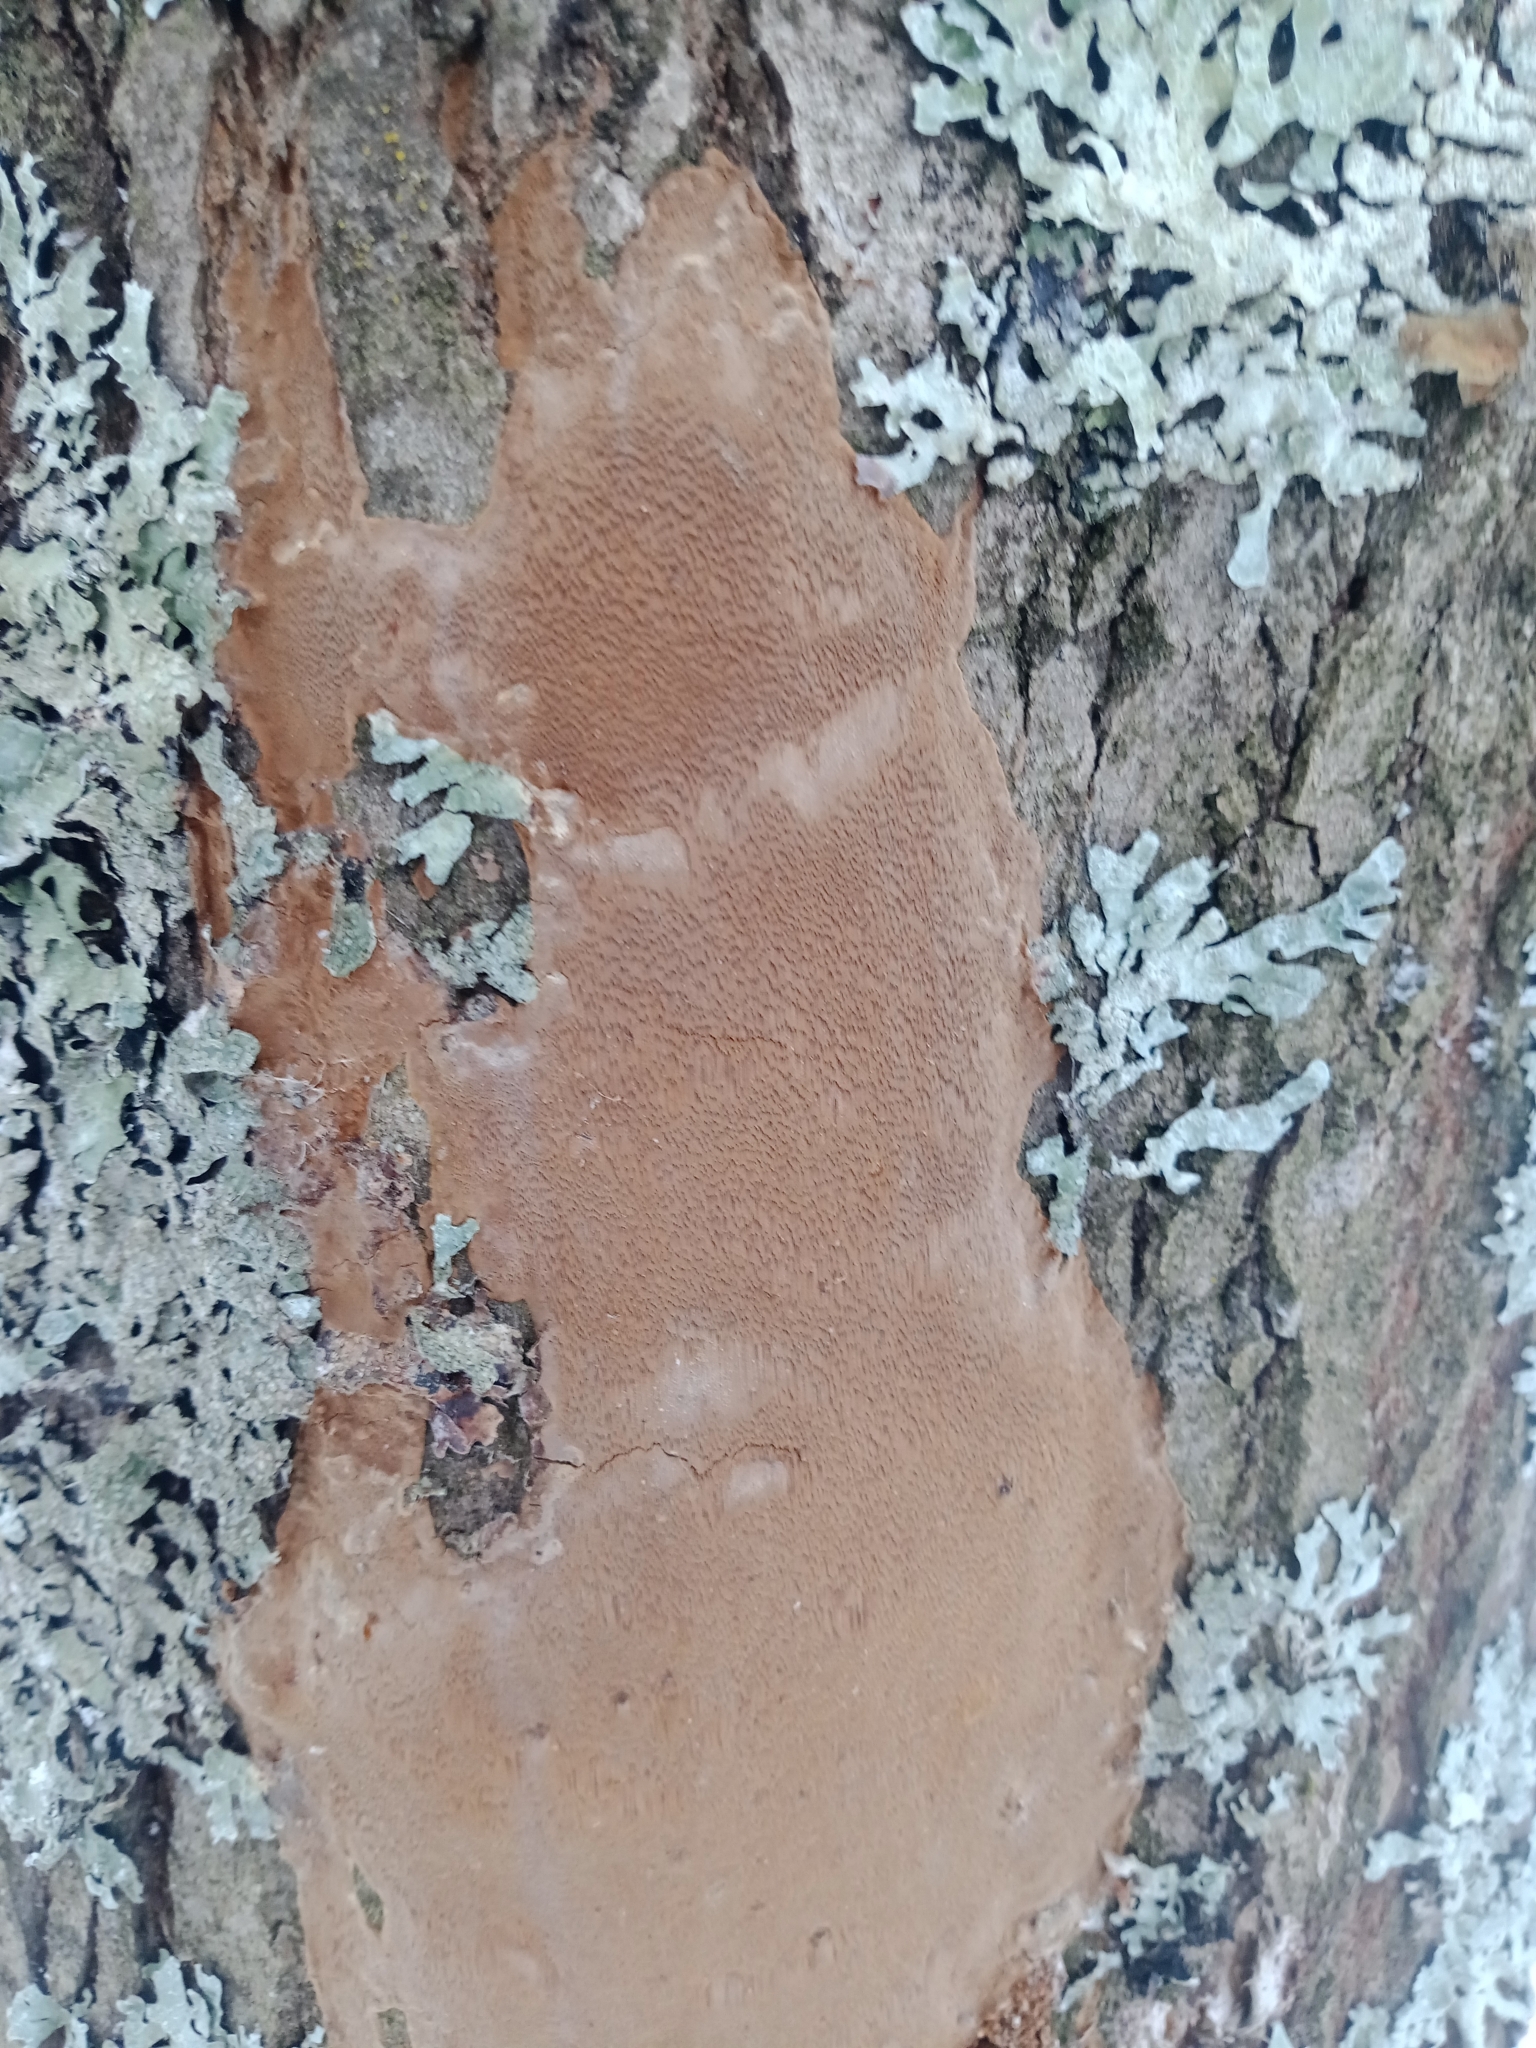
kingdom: Fungi
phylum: Basidiomycota
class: Agaricomycetes
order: Hymenochaetales
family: Hymenochaetaceae
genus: Fomitiporia
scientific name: Fomitiporia punctata
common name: Elbowpatch crust
